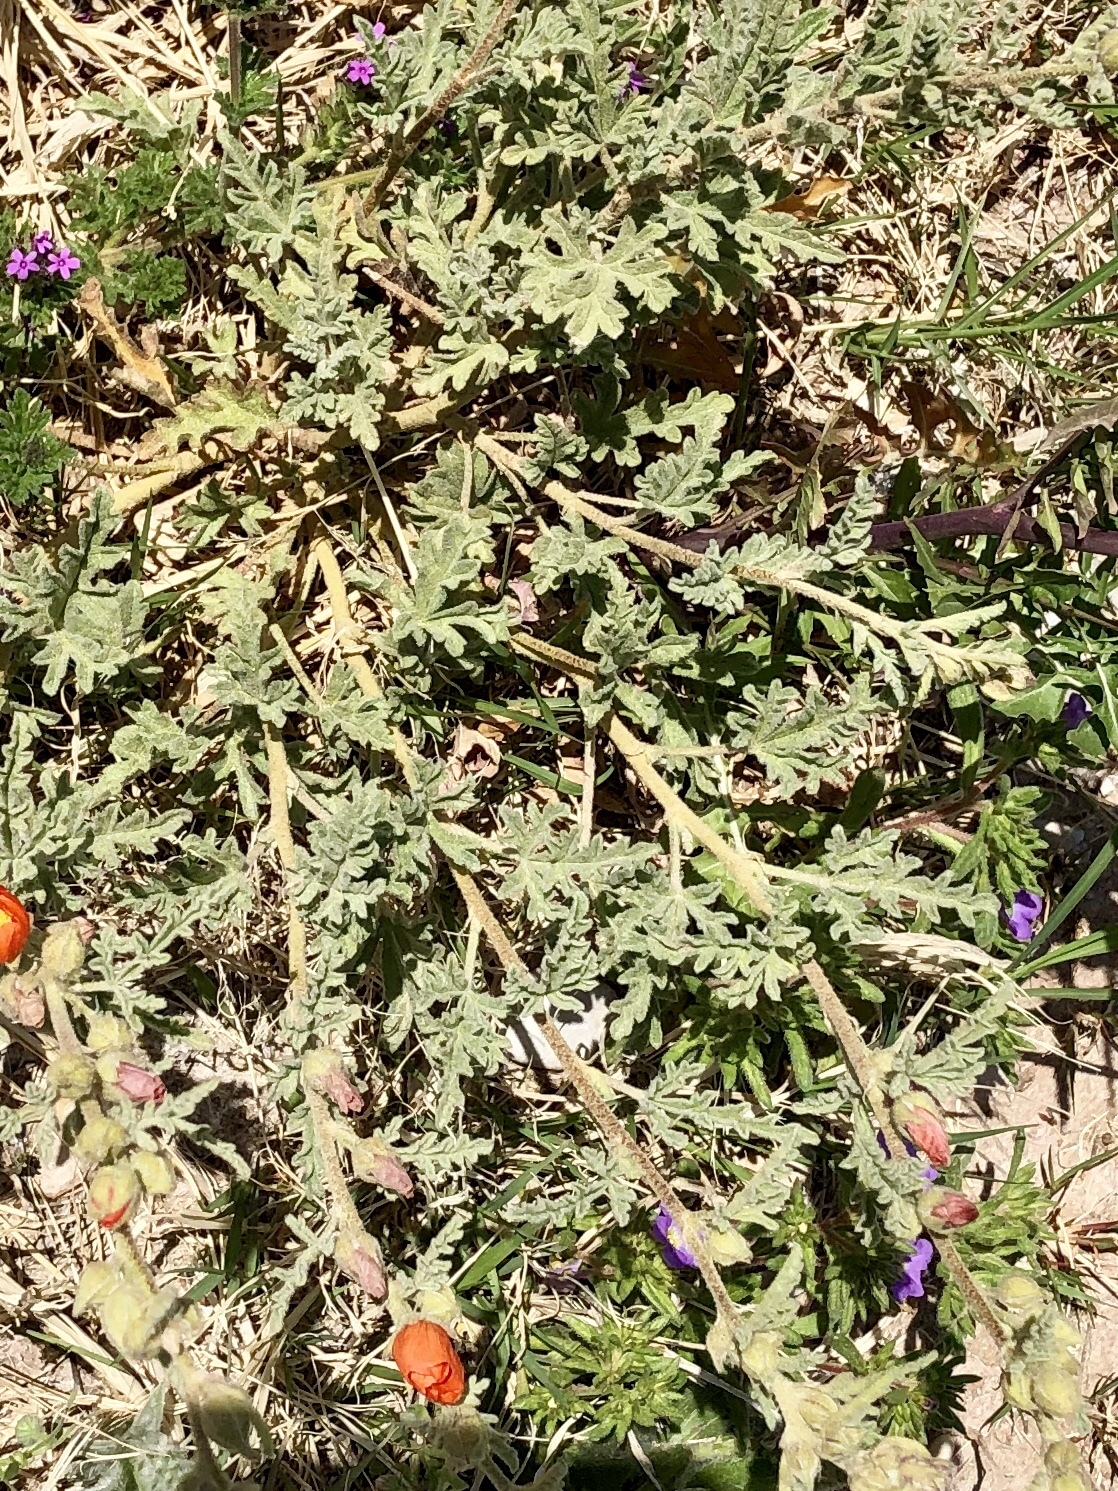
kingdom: Plantae
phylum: Tracheophyta
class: Magnoliopsida
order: Malvales
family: Malvaceae
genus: Sphaeralcea
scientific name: Sphaeralcea hastulata
